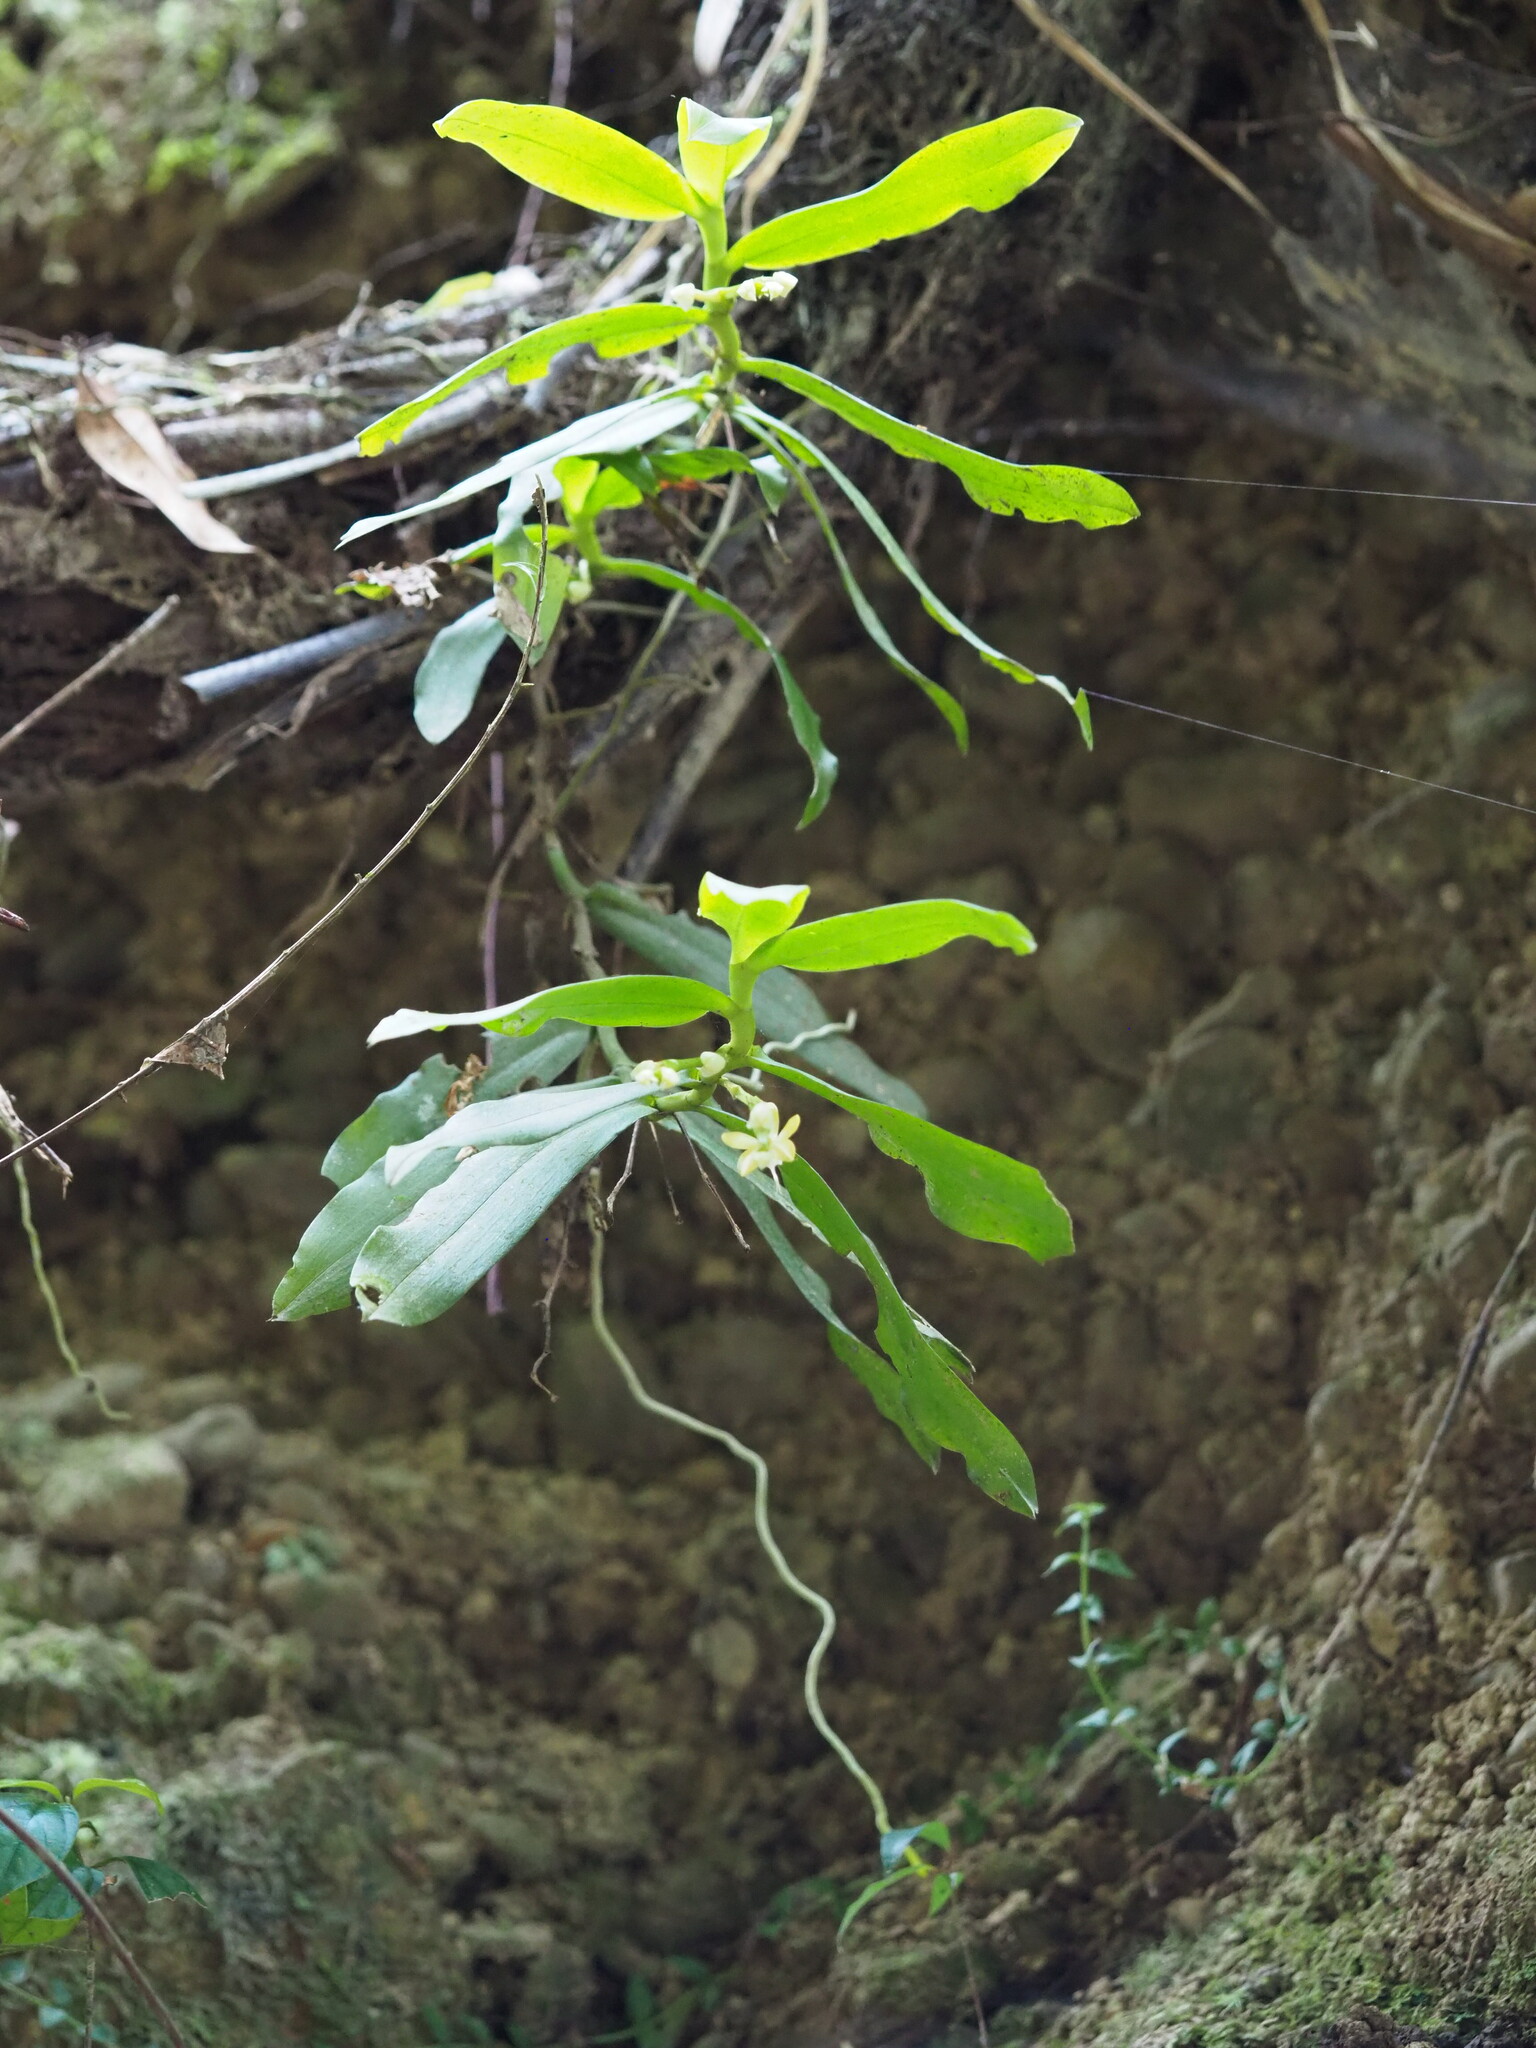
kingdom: Plantae
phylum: Tracheophyta
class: Liliopsida
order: Asparagales
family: Orchidaceae
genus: Diploprora
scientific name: Diploprora championii
